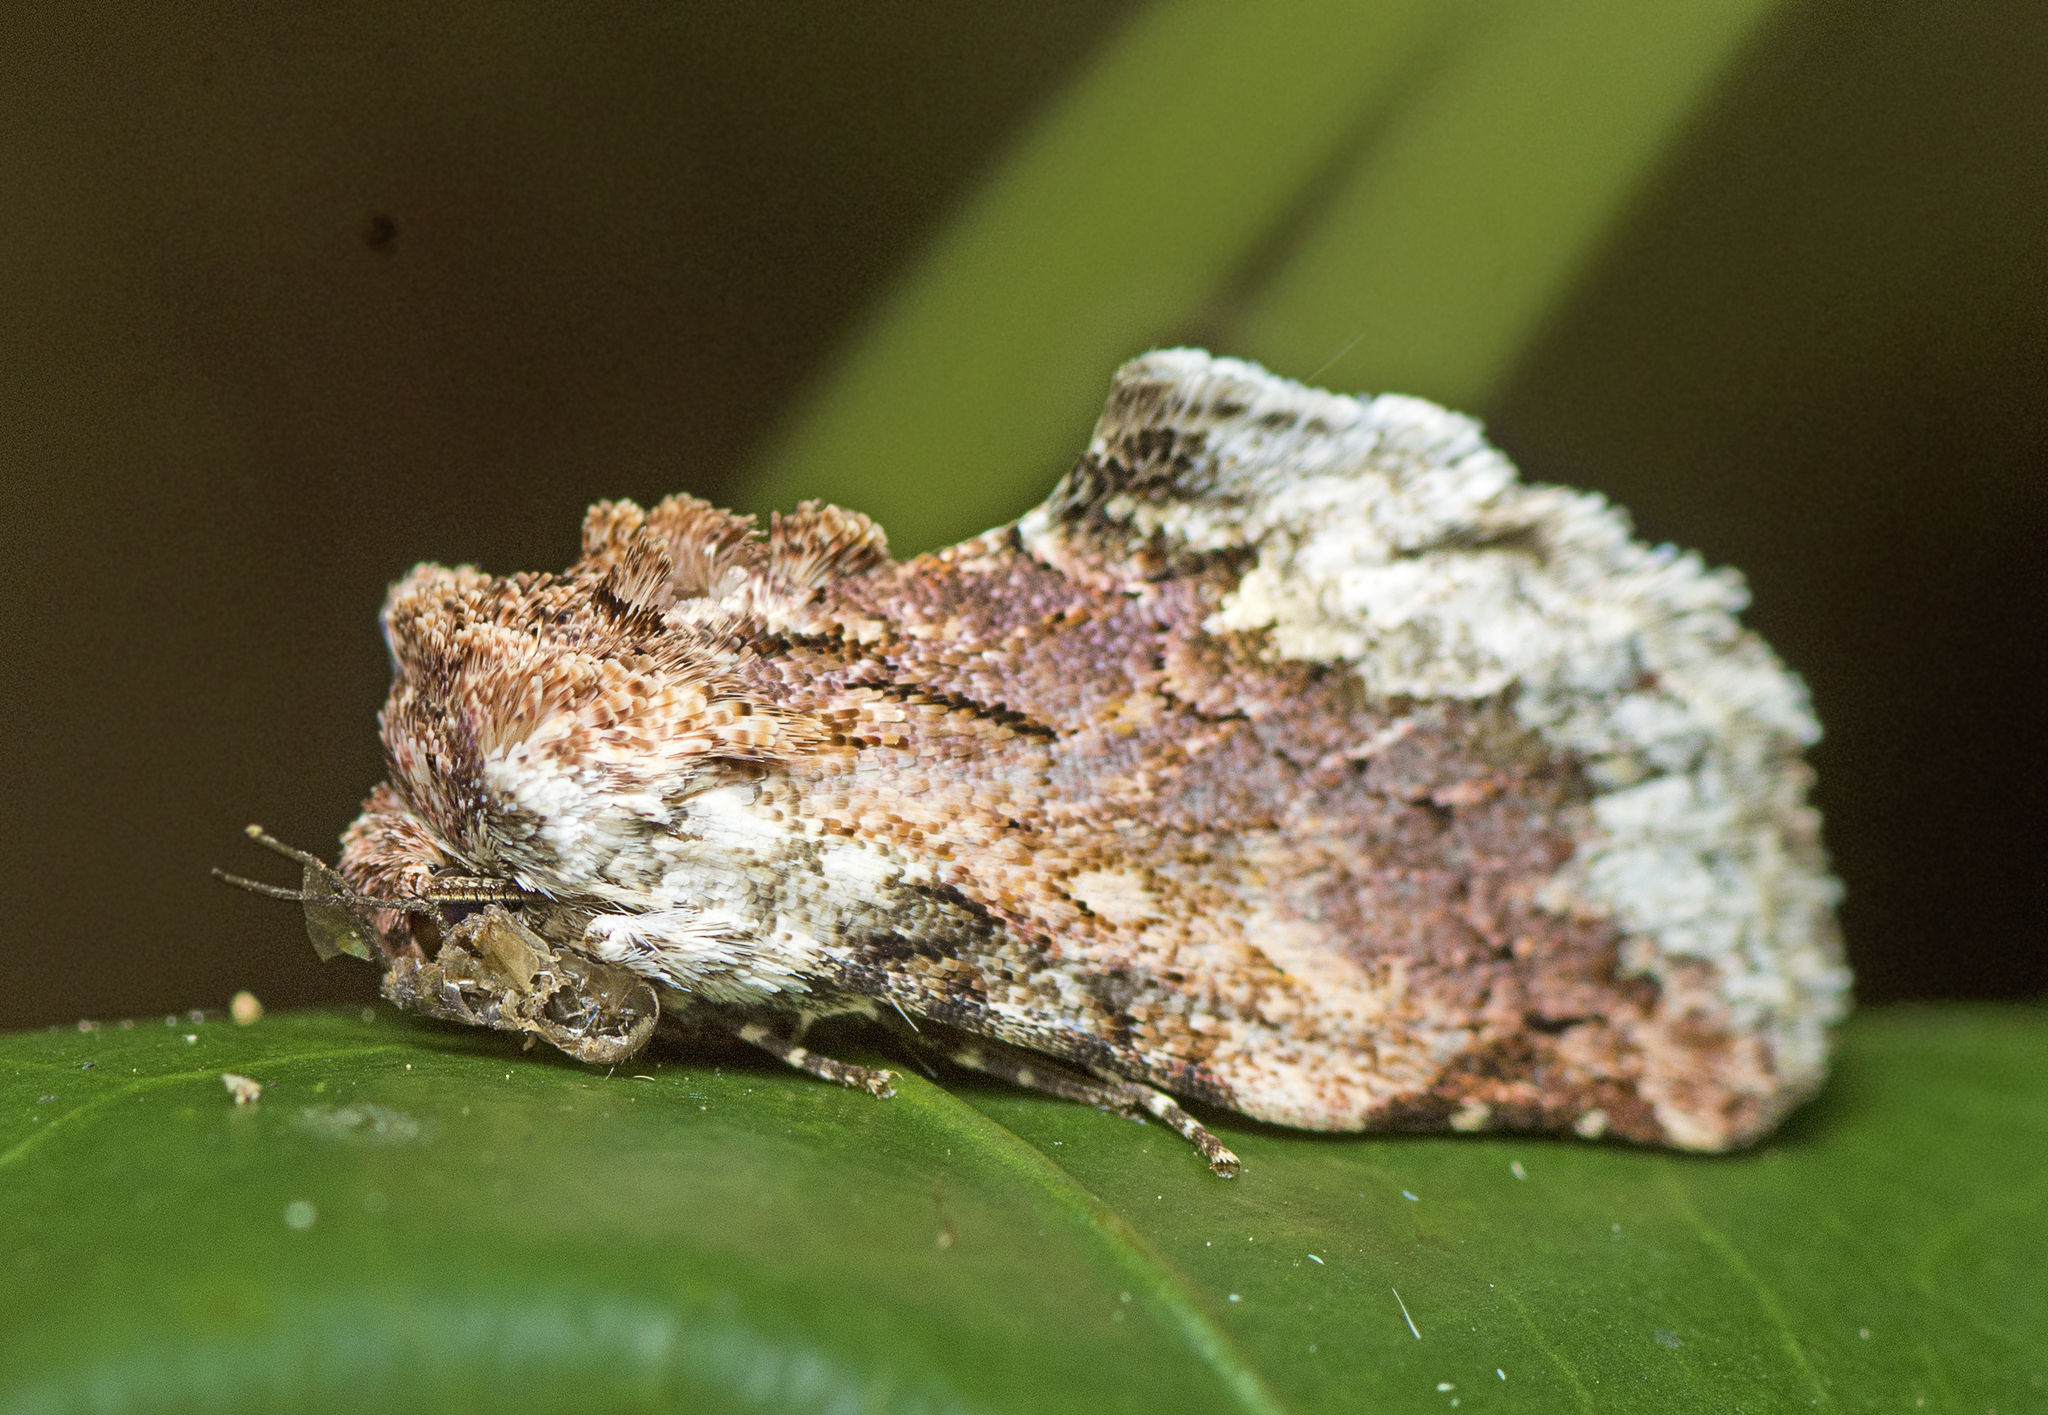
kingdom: Animalia
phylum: Arthropoda
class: Insecta
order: Lepidoptera
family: Noctuidae
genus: Parerastria
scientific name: Parerastria castaneata
